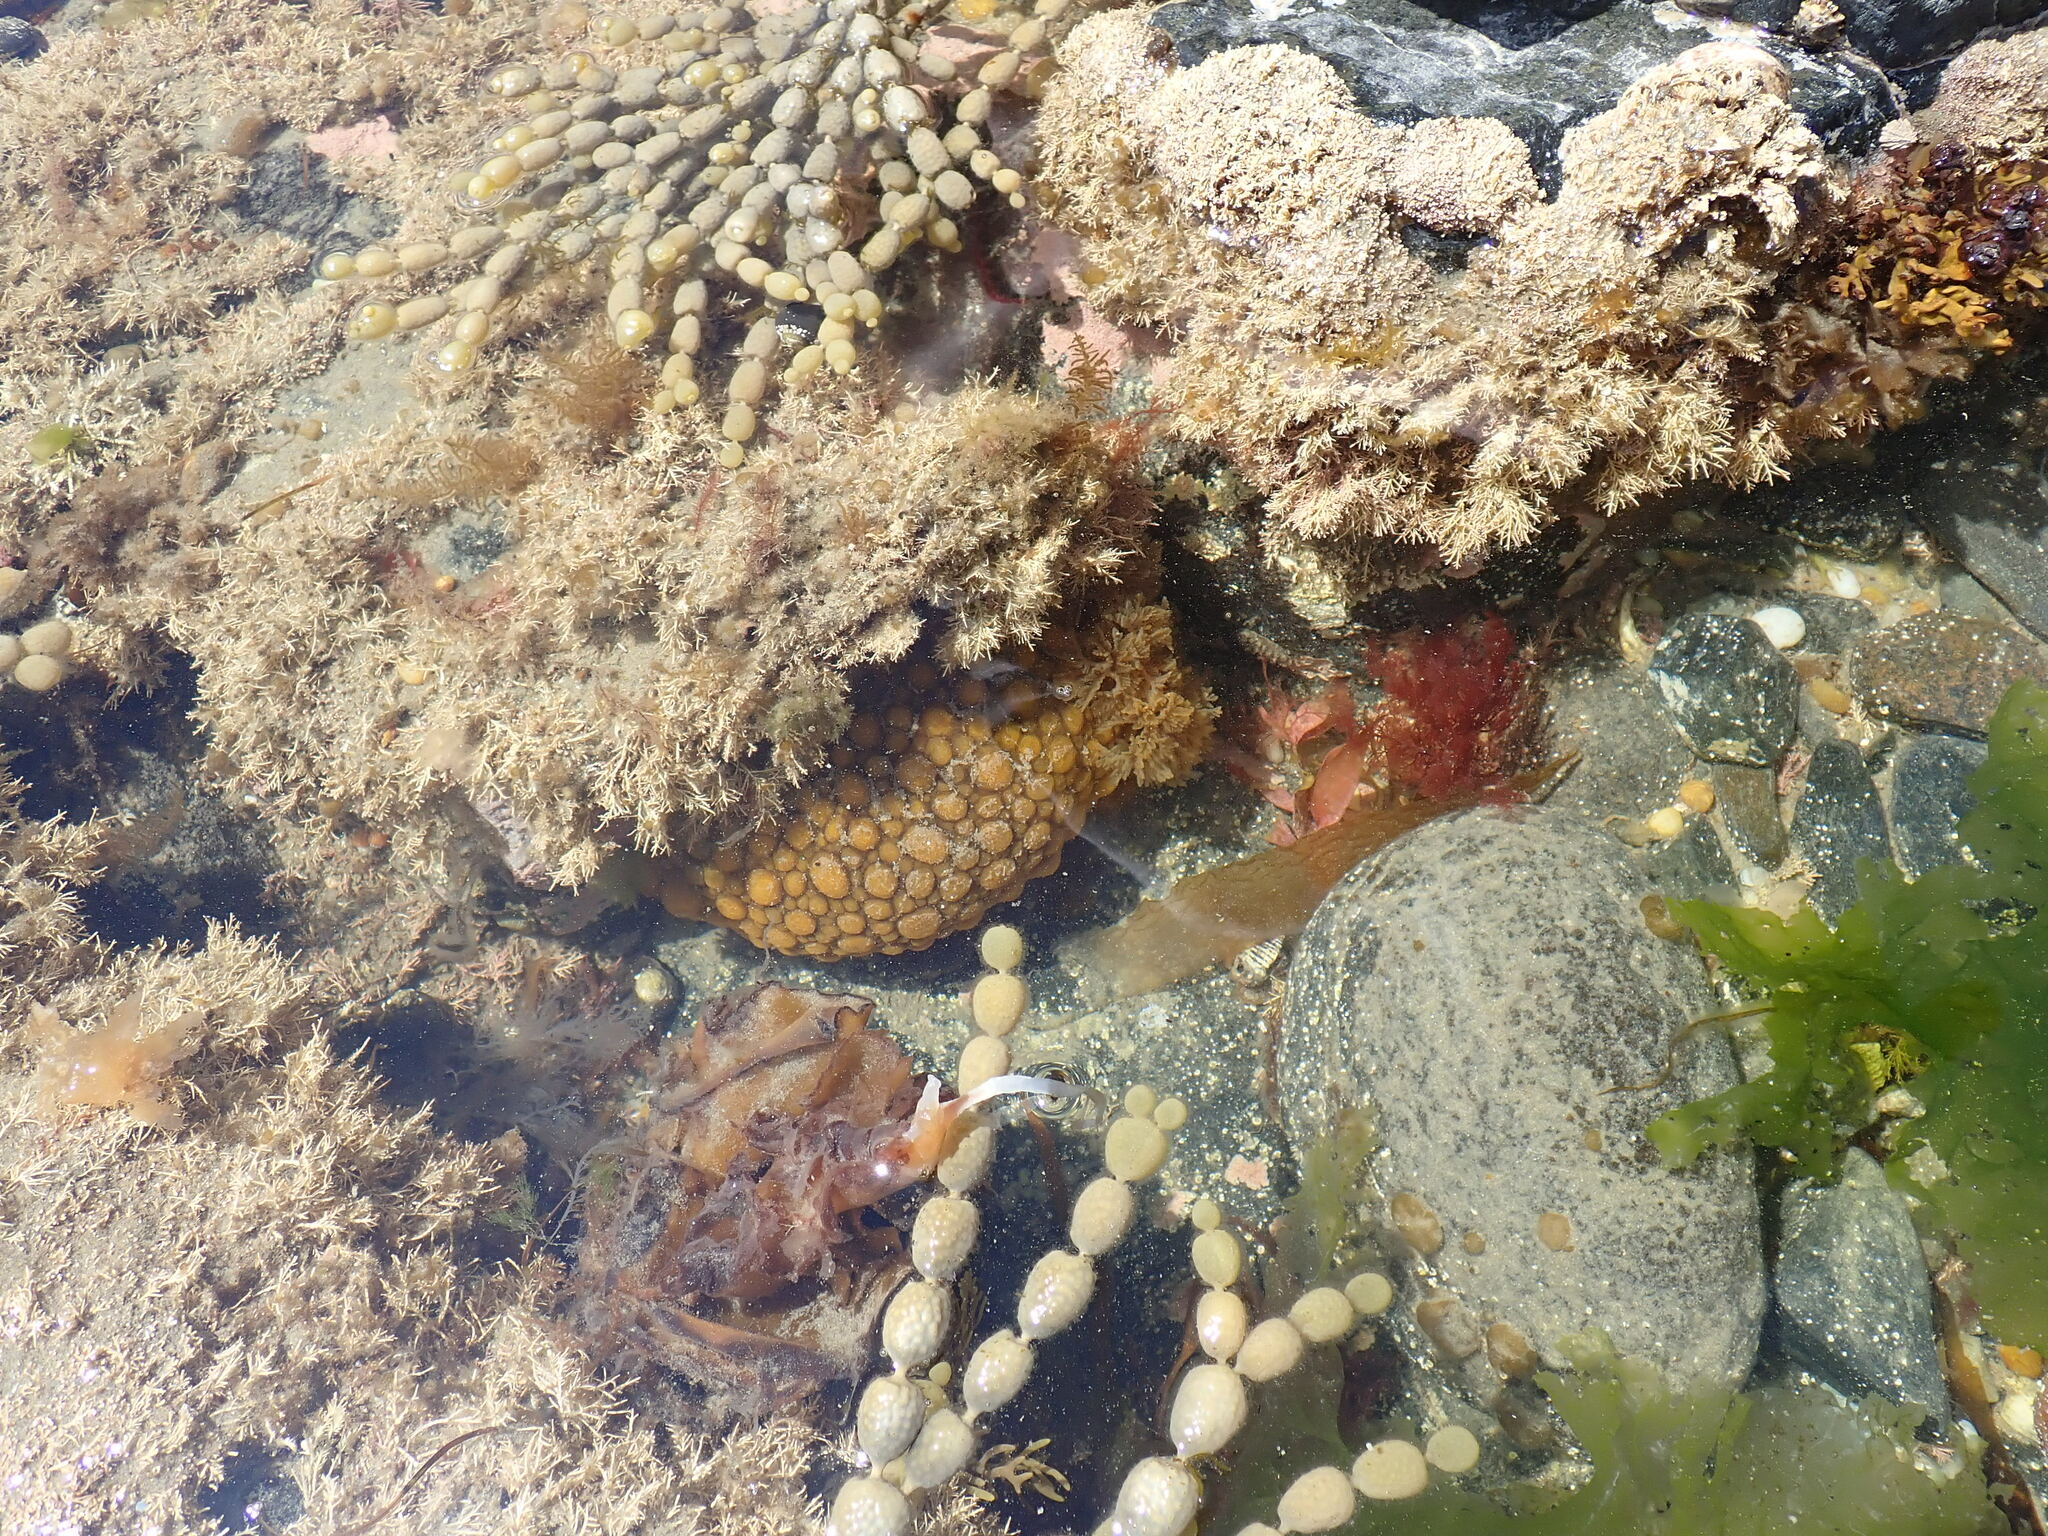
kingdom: Animalia
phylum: Mollusca
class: Gastropoda
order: Nudibranchia
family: Dorididae
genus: Doris
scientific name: Doris wellingtonensis
